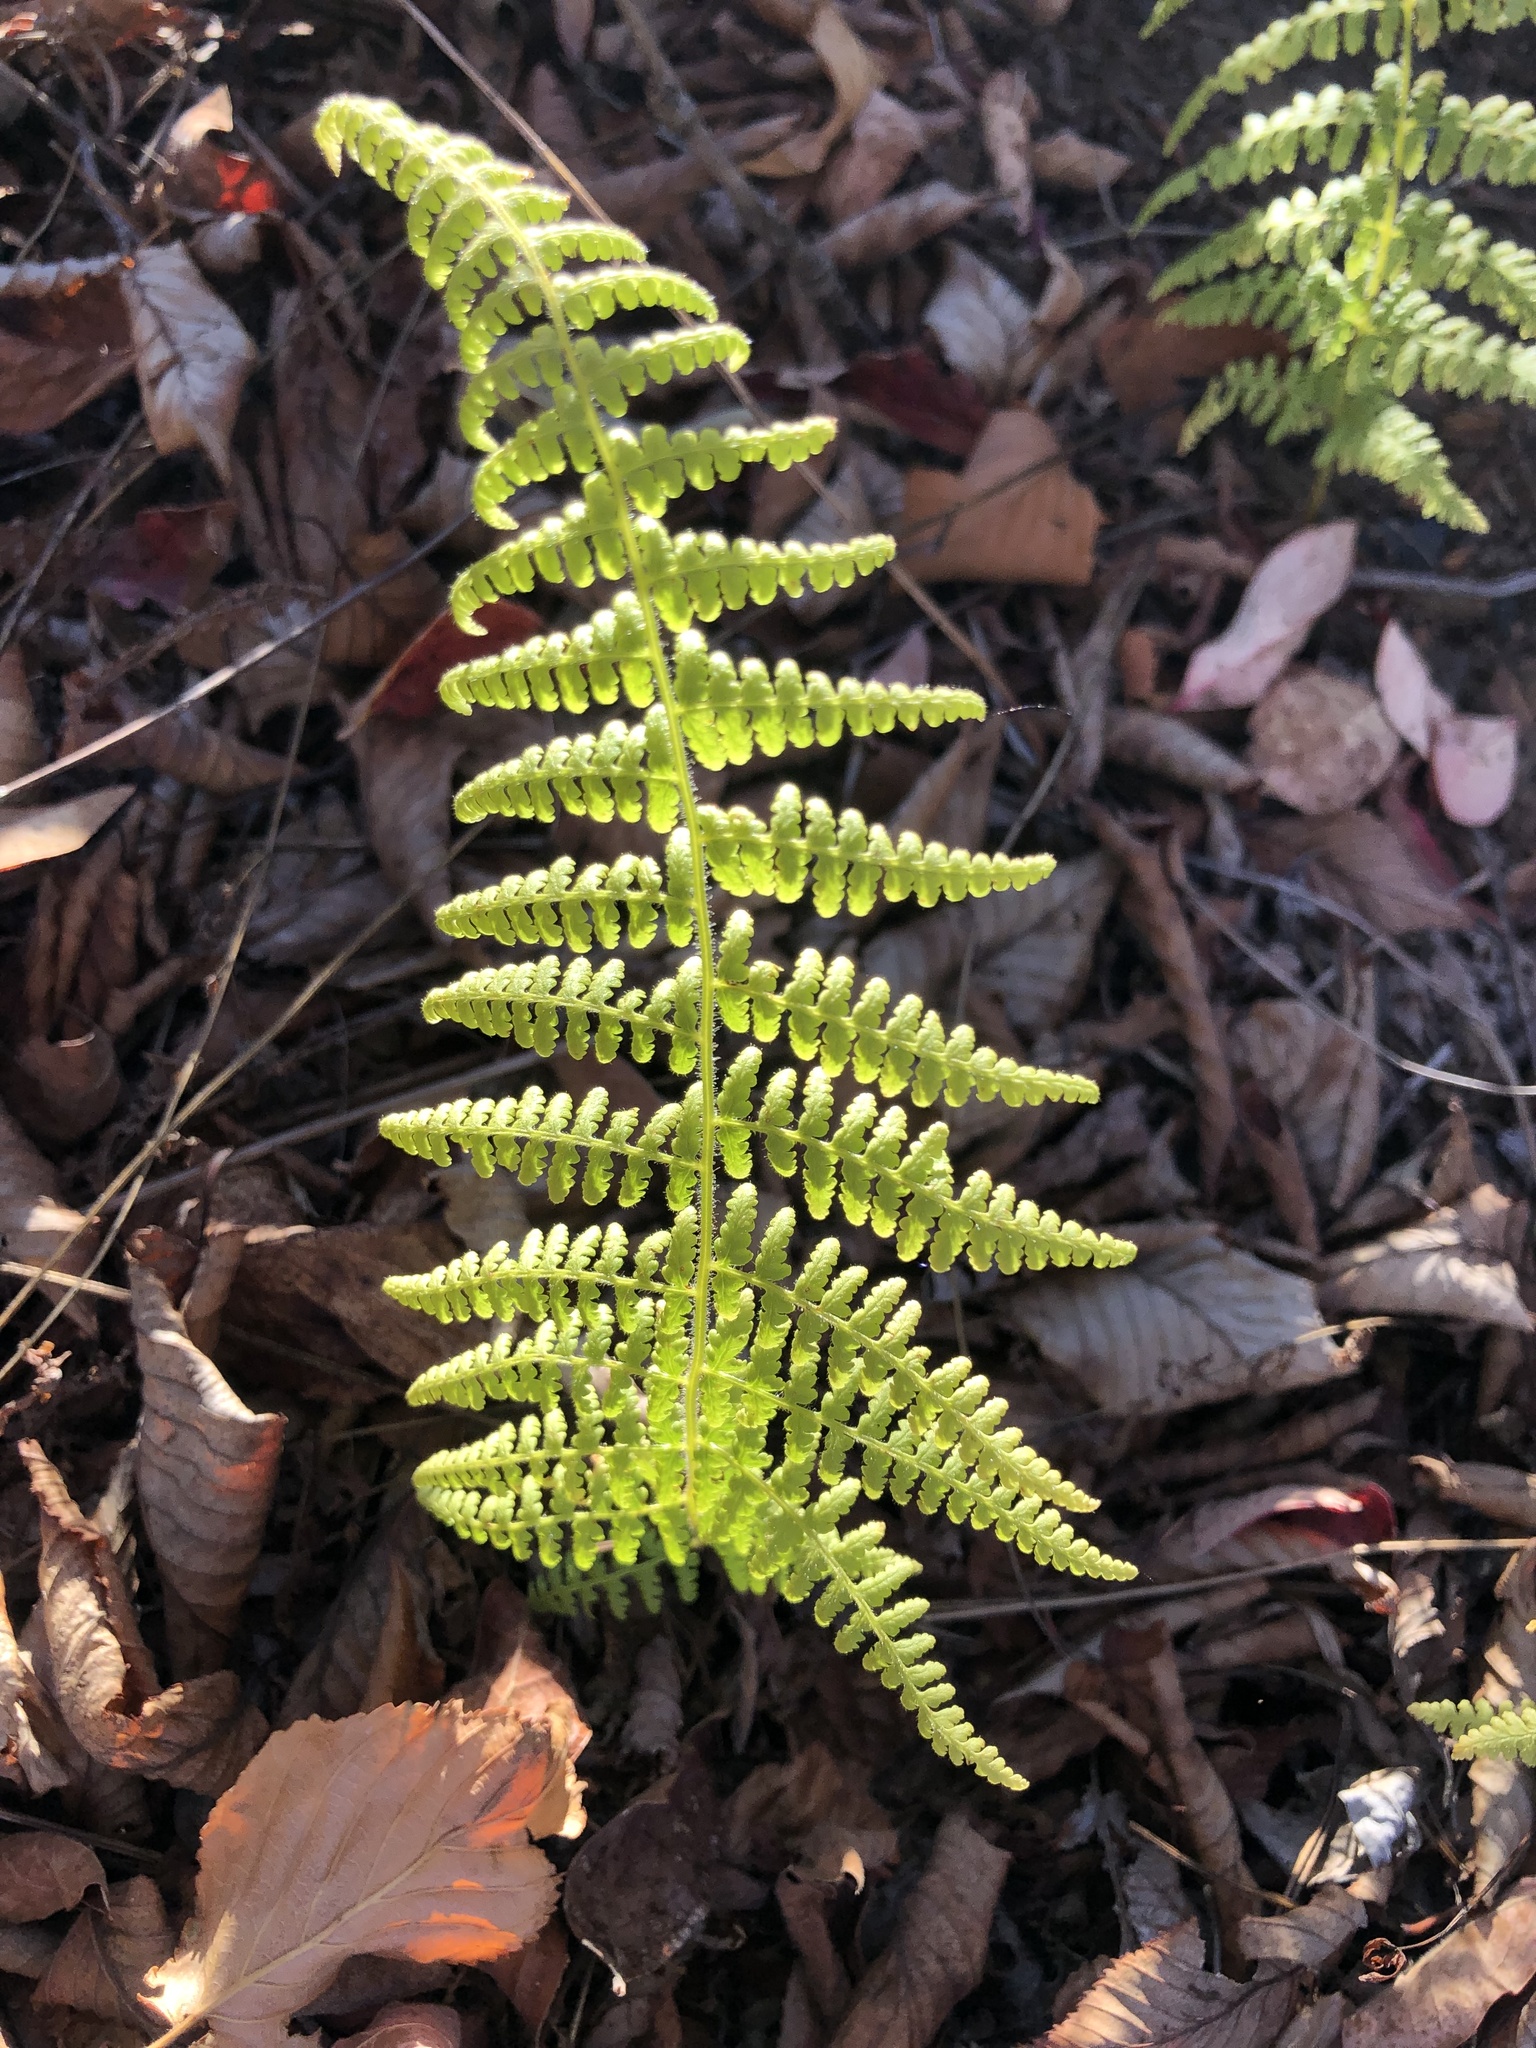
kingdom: Plantae
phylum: Tracheophyta
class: Polypodiopsida
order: Polypodiales
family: Dennstaedtiaceae
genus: Sitobolium
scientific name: Sitobolium punctilobum
